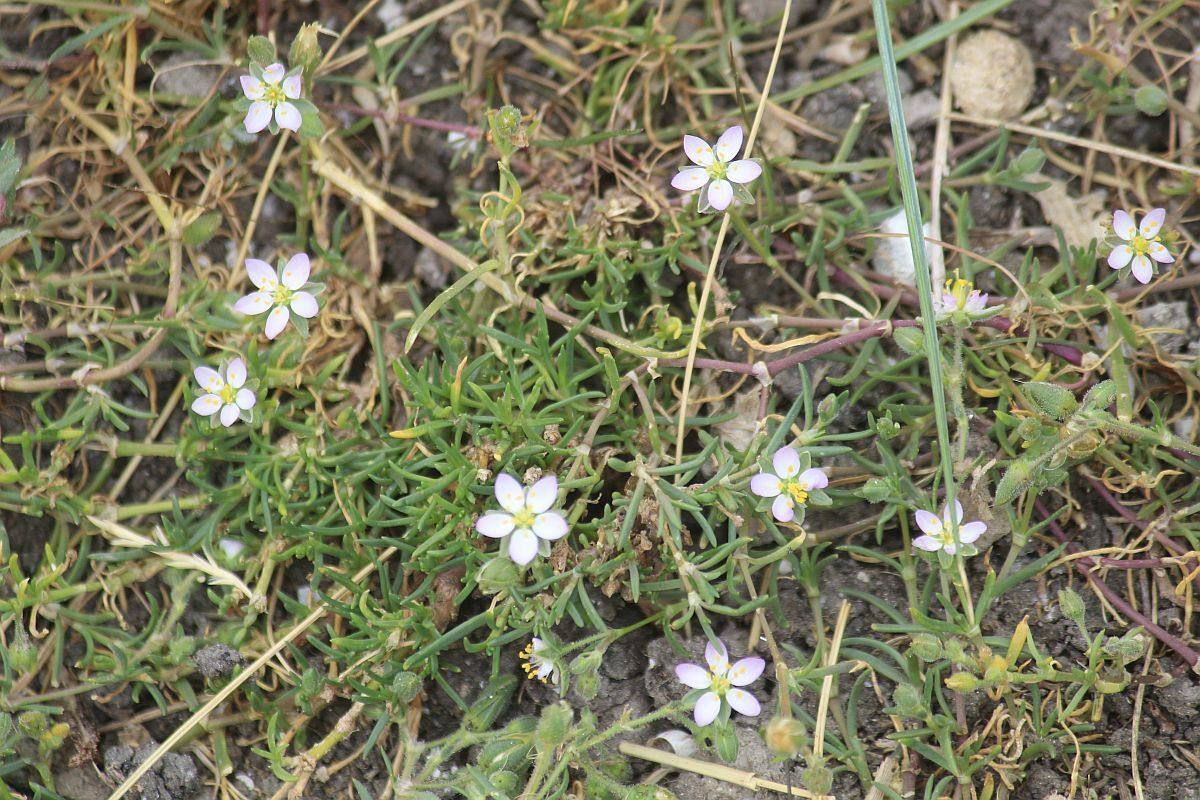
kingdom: Plantae
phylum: Tracheophyta
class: Magnoliopsida
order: Caryophyllales
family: Caryophyllaceae
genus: Spergularia
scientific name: Spergularia media
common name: Greater sea-spurrey
